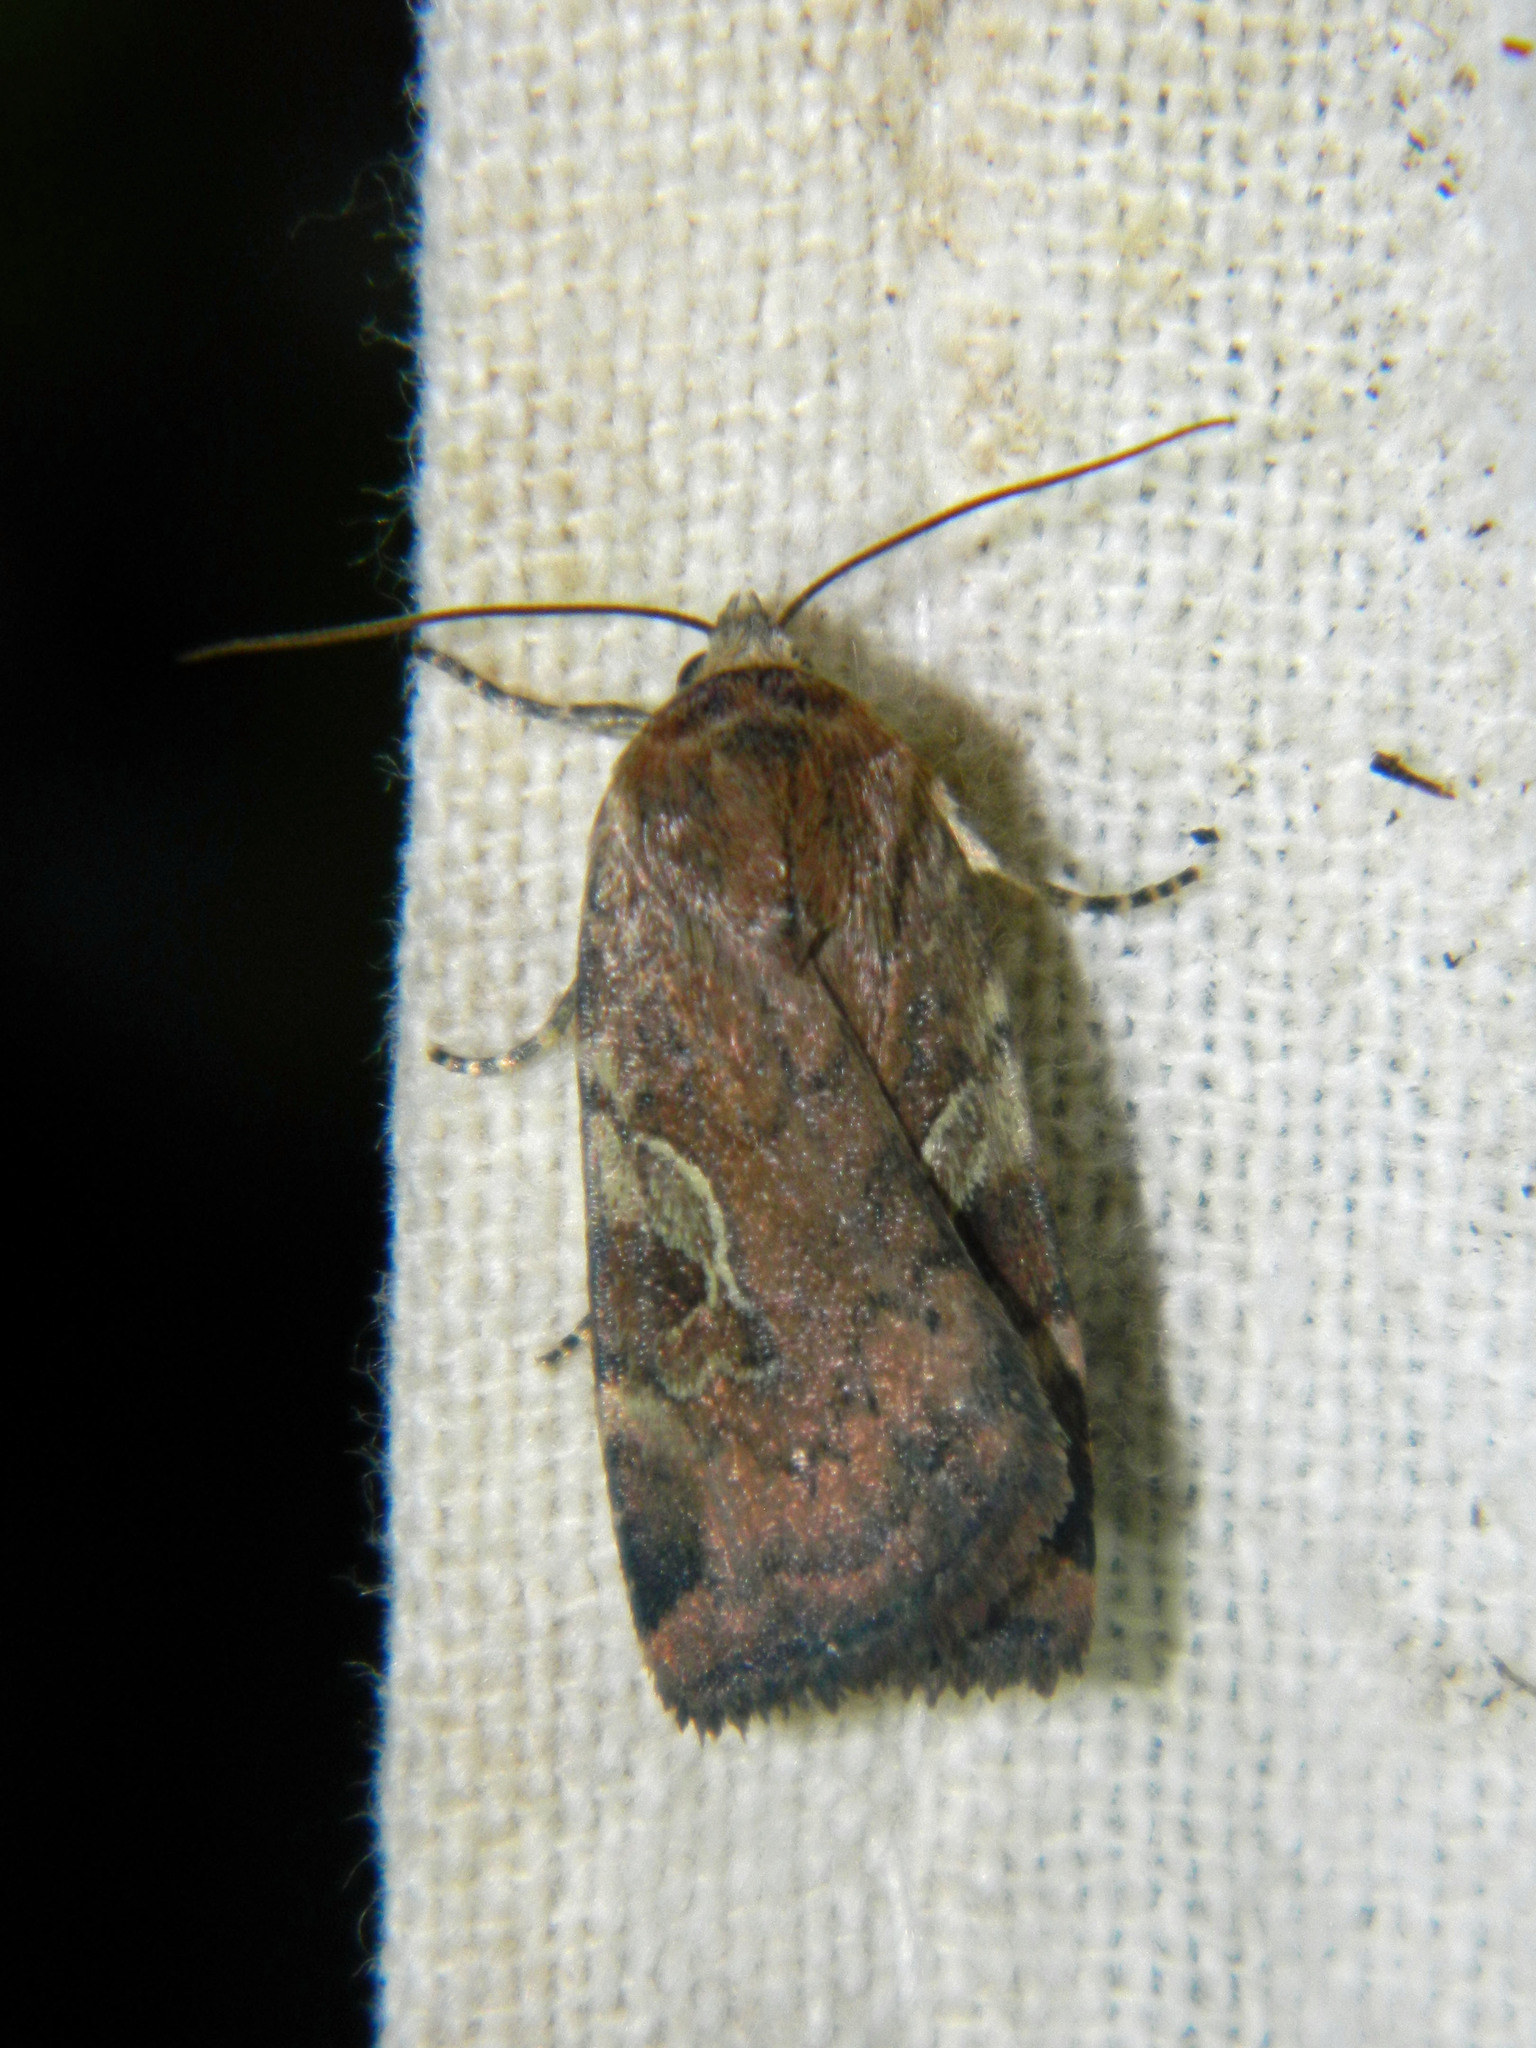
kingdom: Animalia
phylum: Arthropoda
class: Insecta
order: Lepidoptera
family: Noctuidae
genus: Cryptocala
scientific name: Cryptocala acadiensis
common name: Catocaline dart
